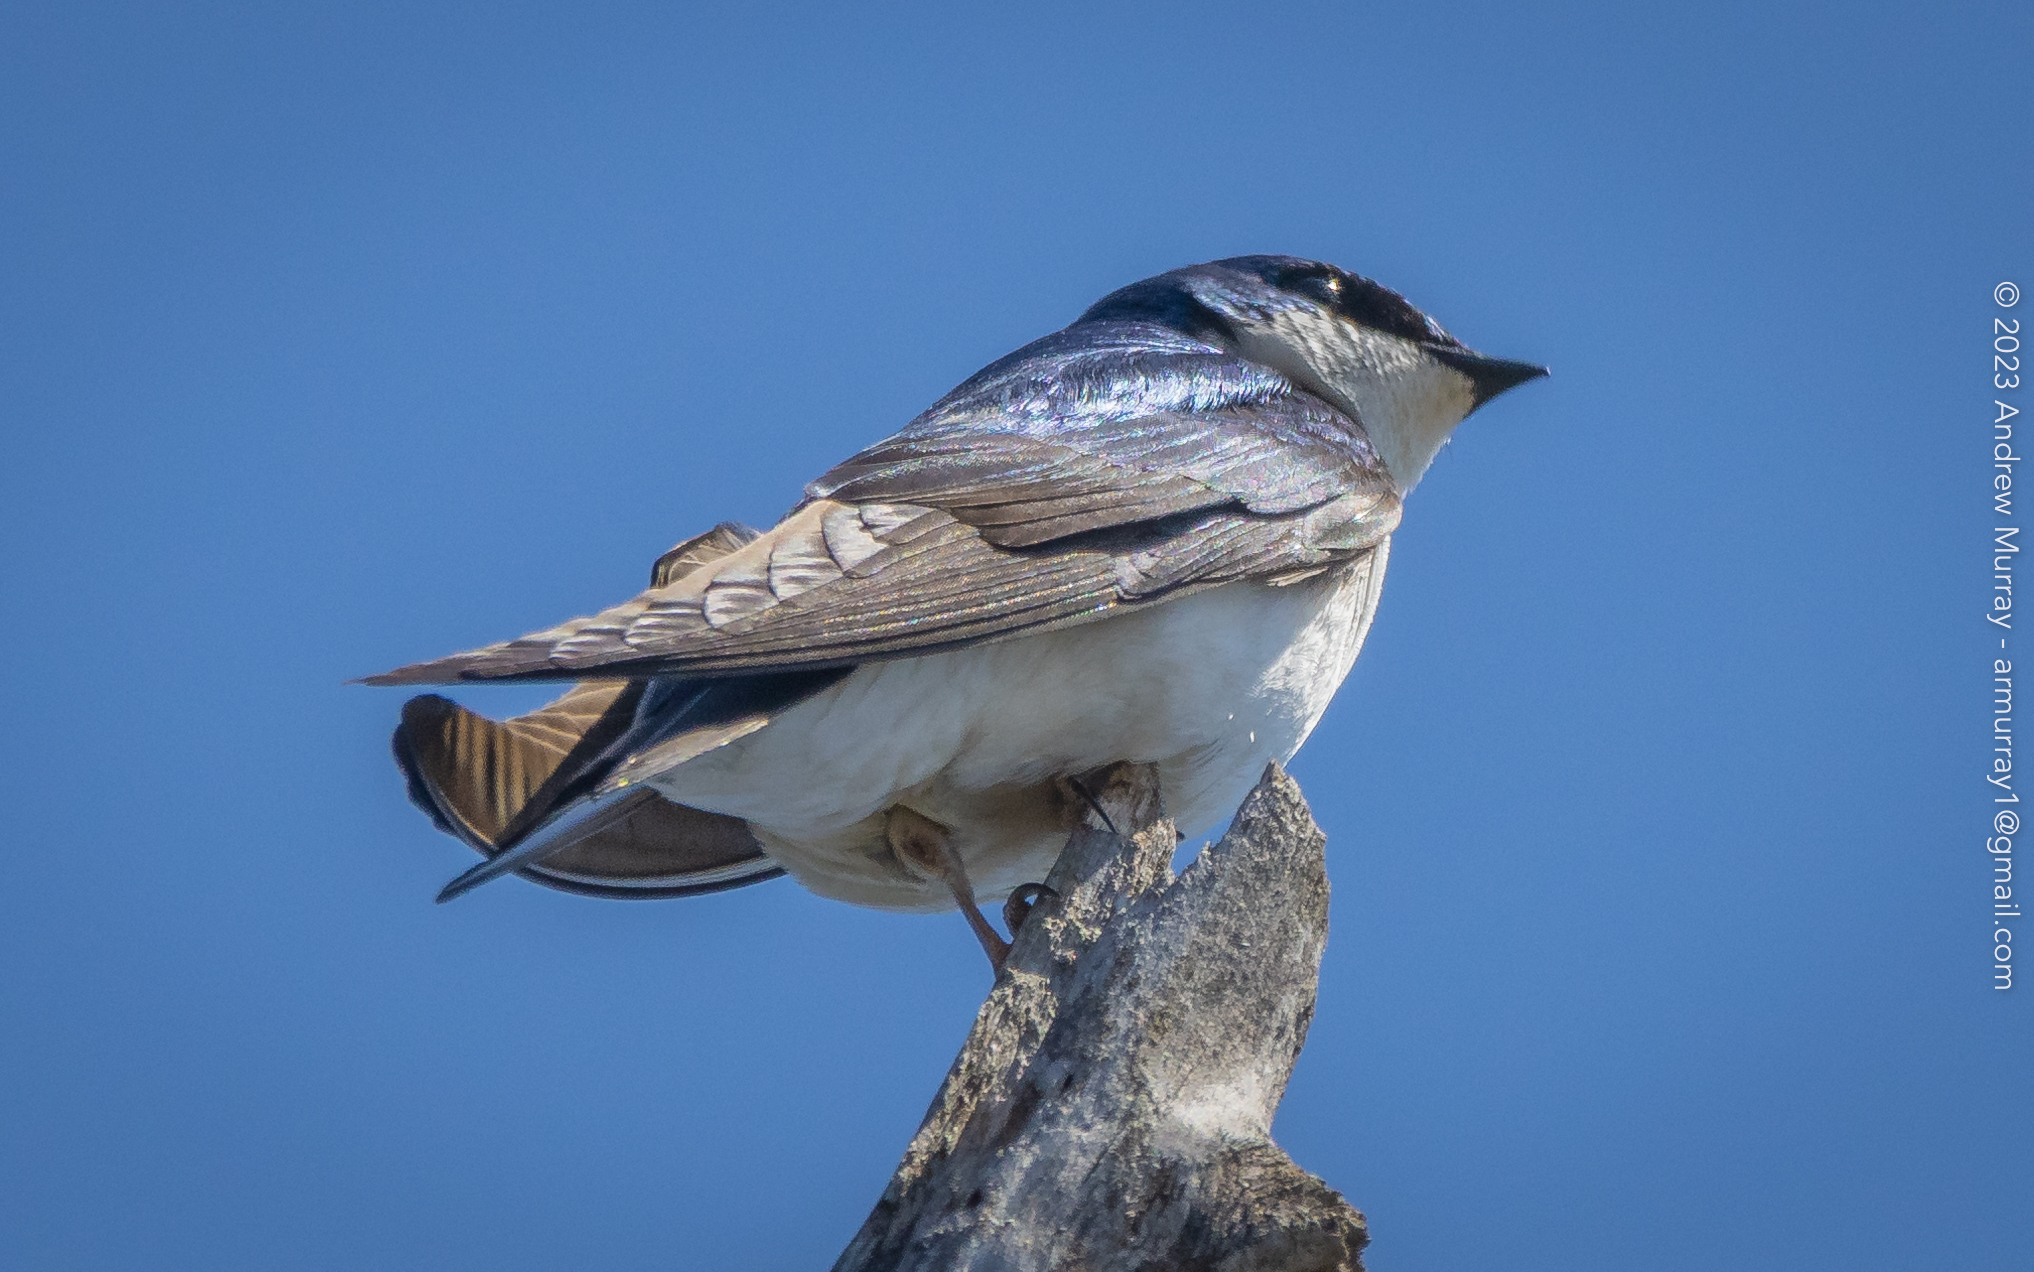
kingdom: Animalia
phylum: Chordata
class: Aves
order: Passeriformes
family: Hirundinidae
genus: Tachycineta
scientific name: Tachycineta bicolor
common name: Tree swallow
